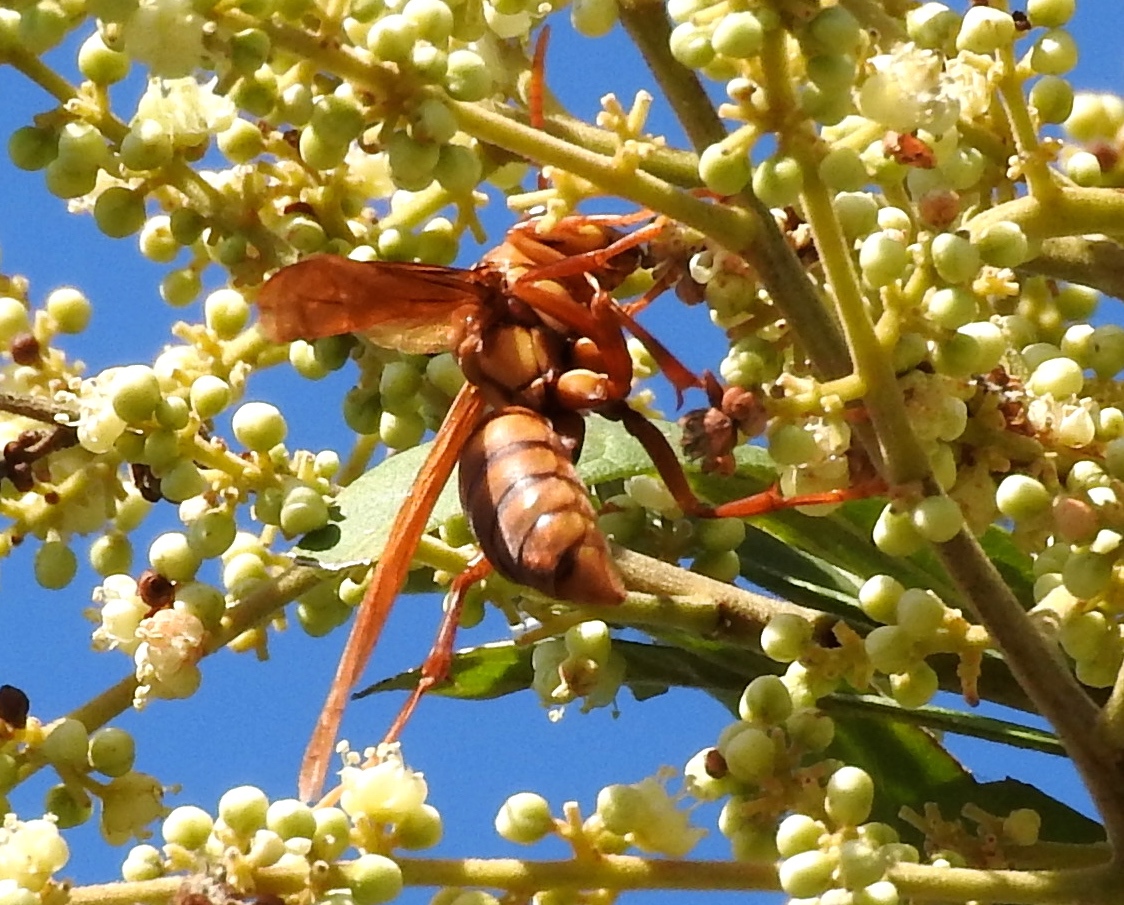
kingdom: Animalia
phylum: Arthropoda
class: Insecta
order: Hymenoptera
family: Eumenidae
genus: Polistes
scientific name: Polistes
